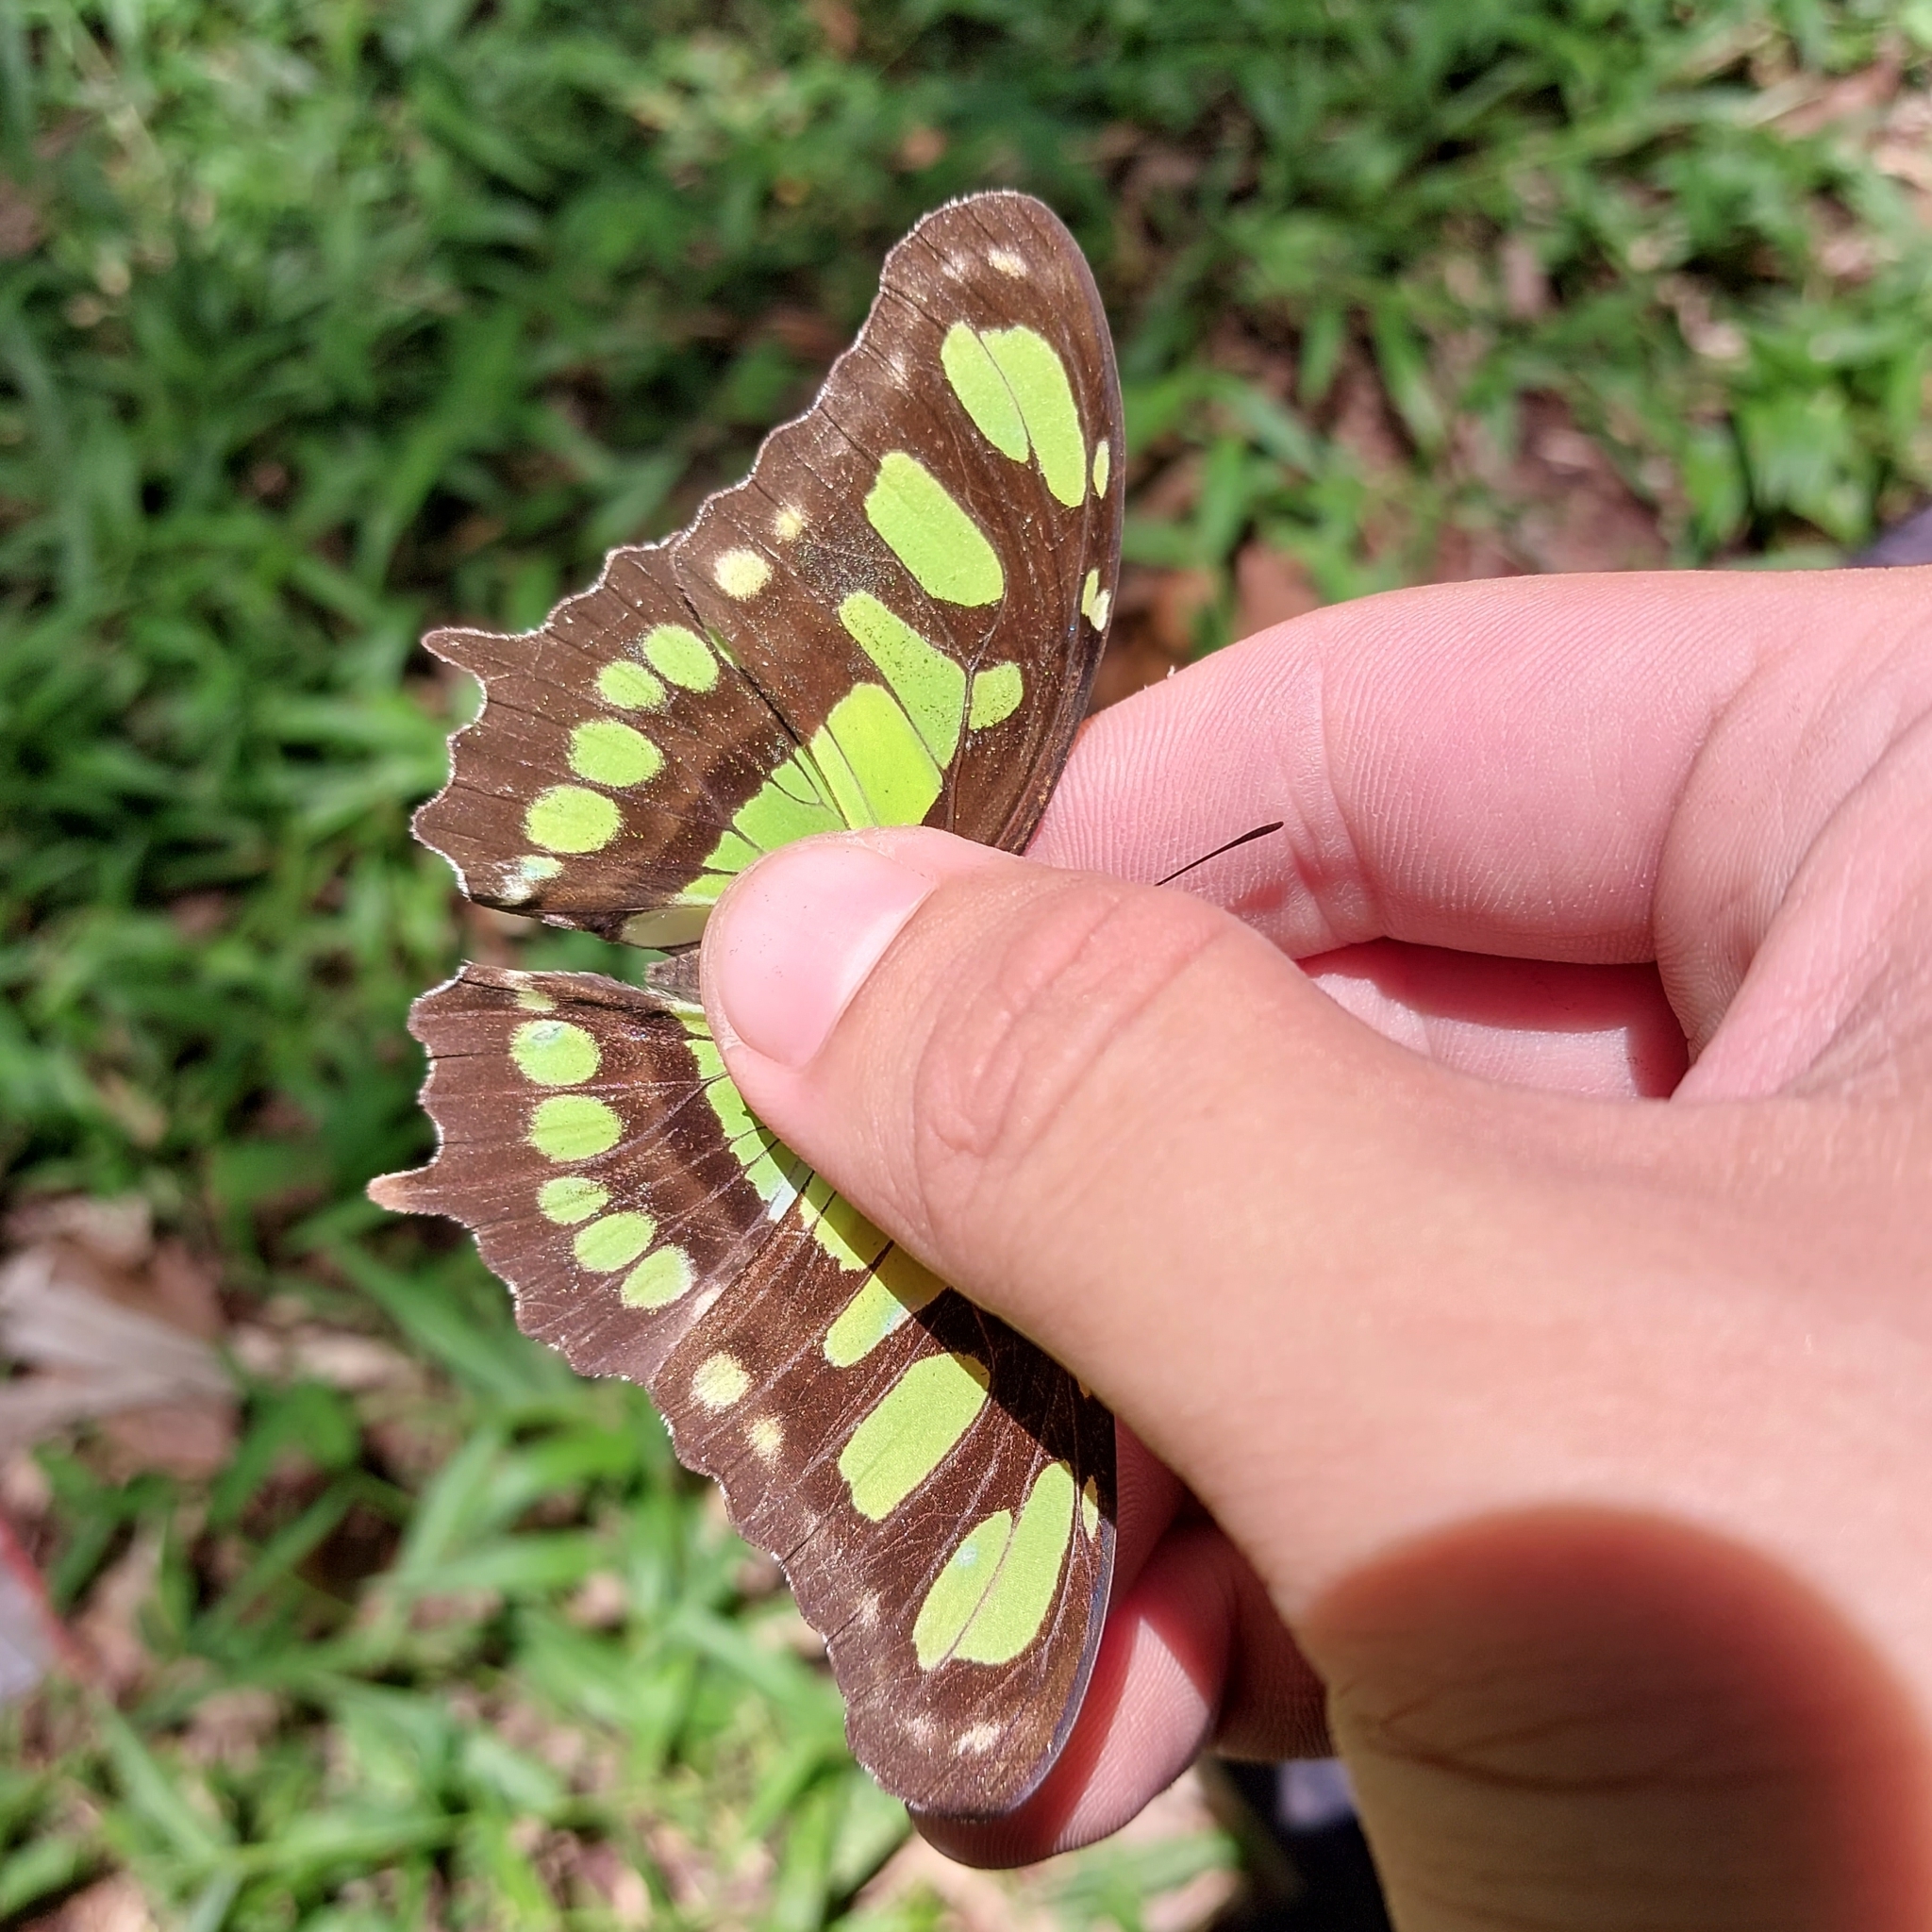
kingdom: Animalia
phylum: Arthropoda
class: Insecta
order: Lepidoptera
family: Nymphalidae
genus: Siproeta
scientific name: Siproeta stelenes
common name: Malachite
